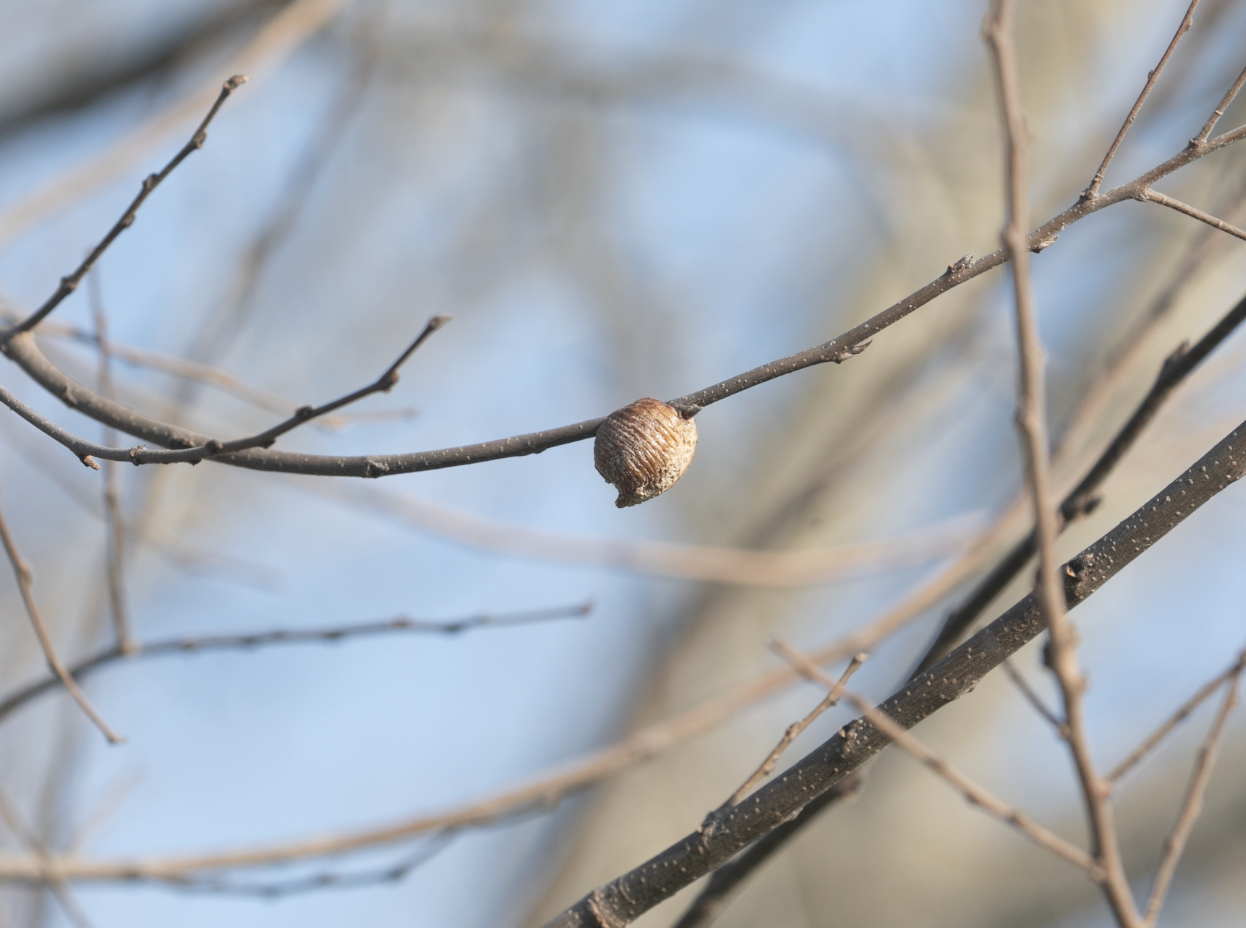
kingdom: Animalia
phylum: Arthropoda
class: Insecta
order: Mantodea
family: Mantidae
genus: Hierodula
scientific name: Hierodula transcaucasica
